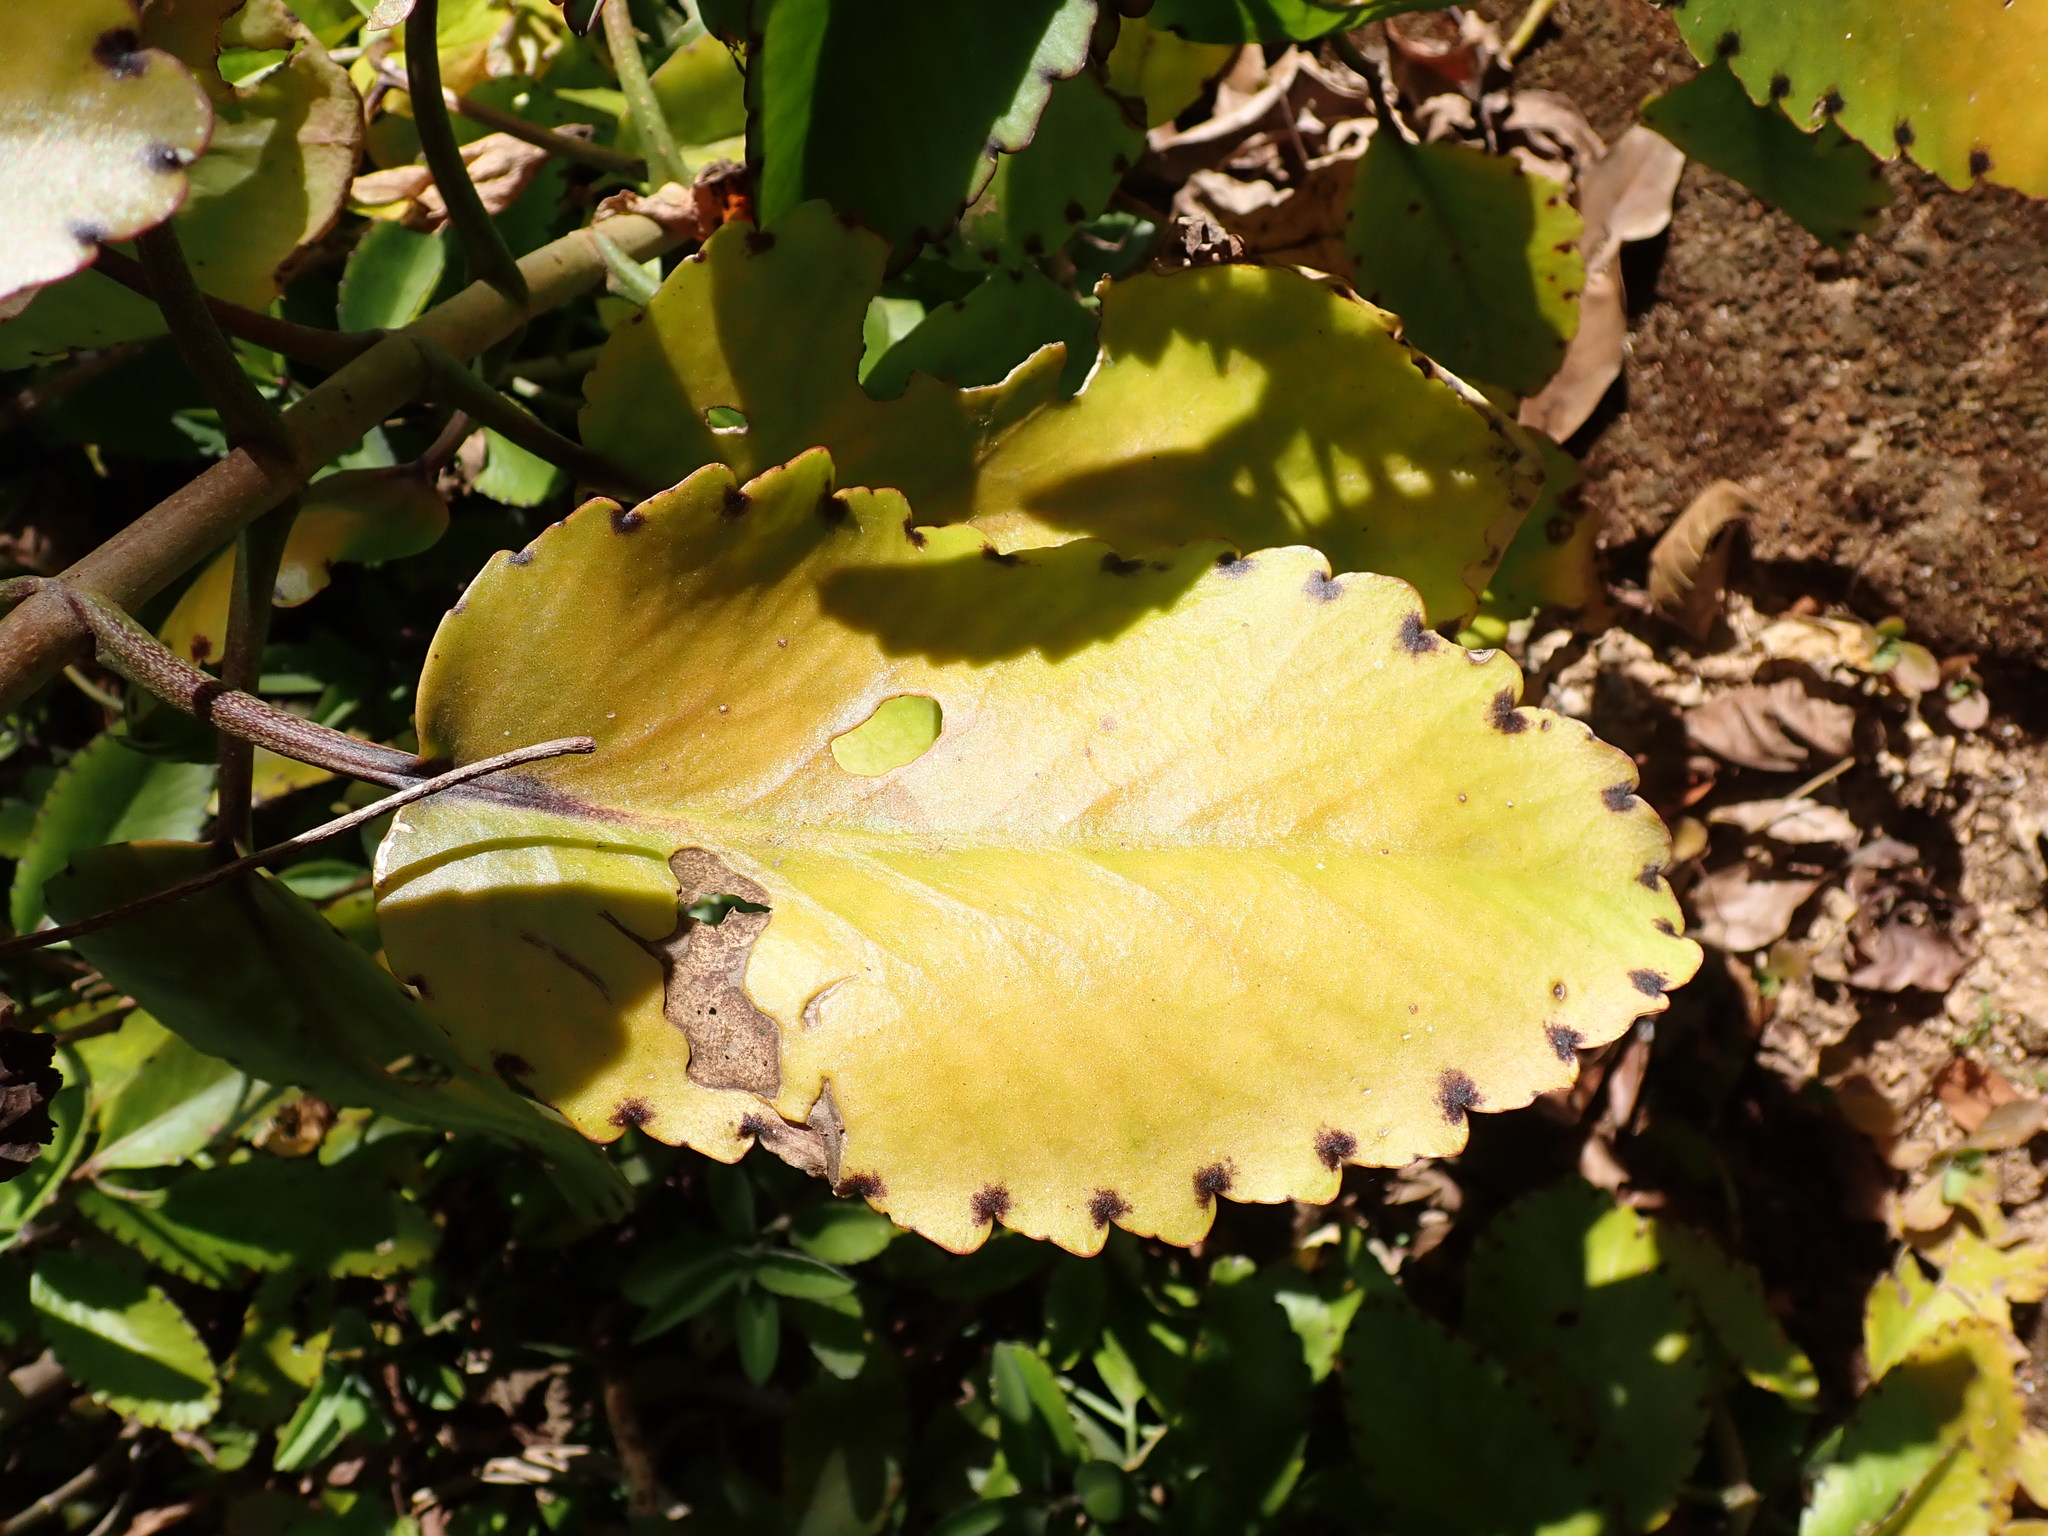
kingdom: Plantae
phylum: Tracheophyta
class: Magnoliopsida
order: Saxifragales
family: Crassulaceae
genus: Kalanchoe
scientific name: Kalanchoe pinnata
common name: Cathedral bells
